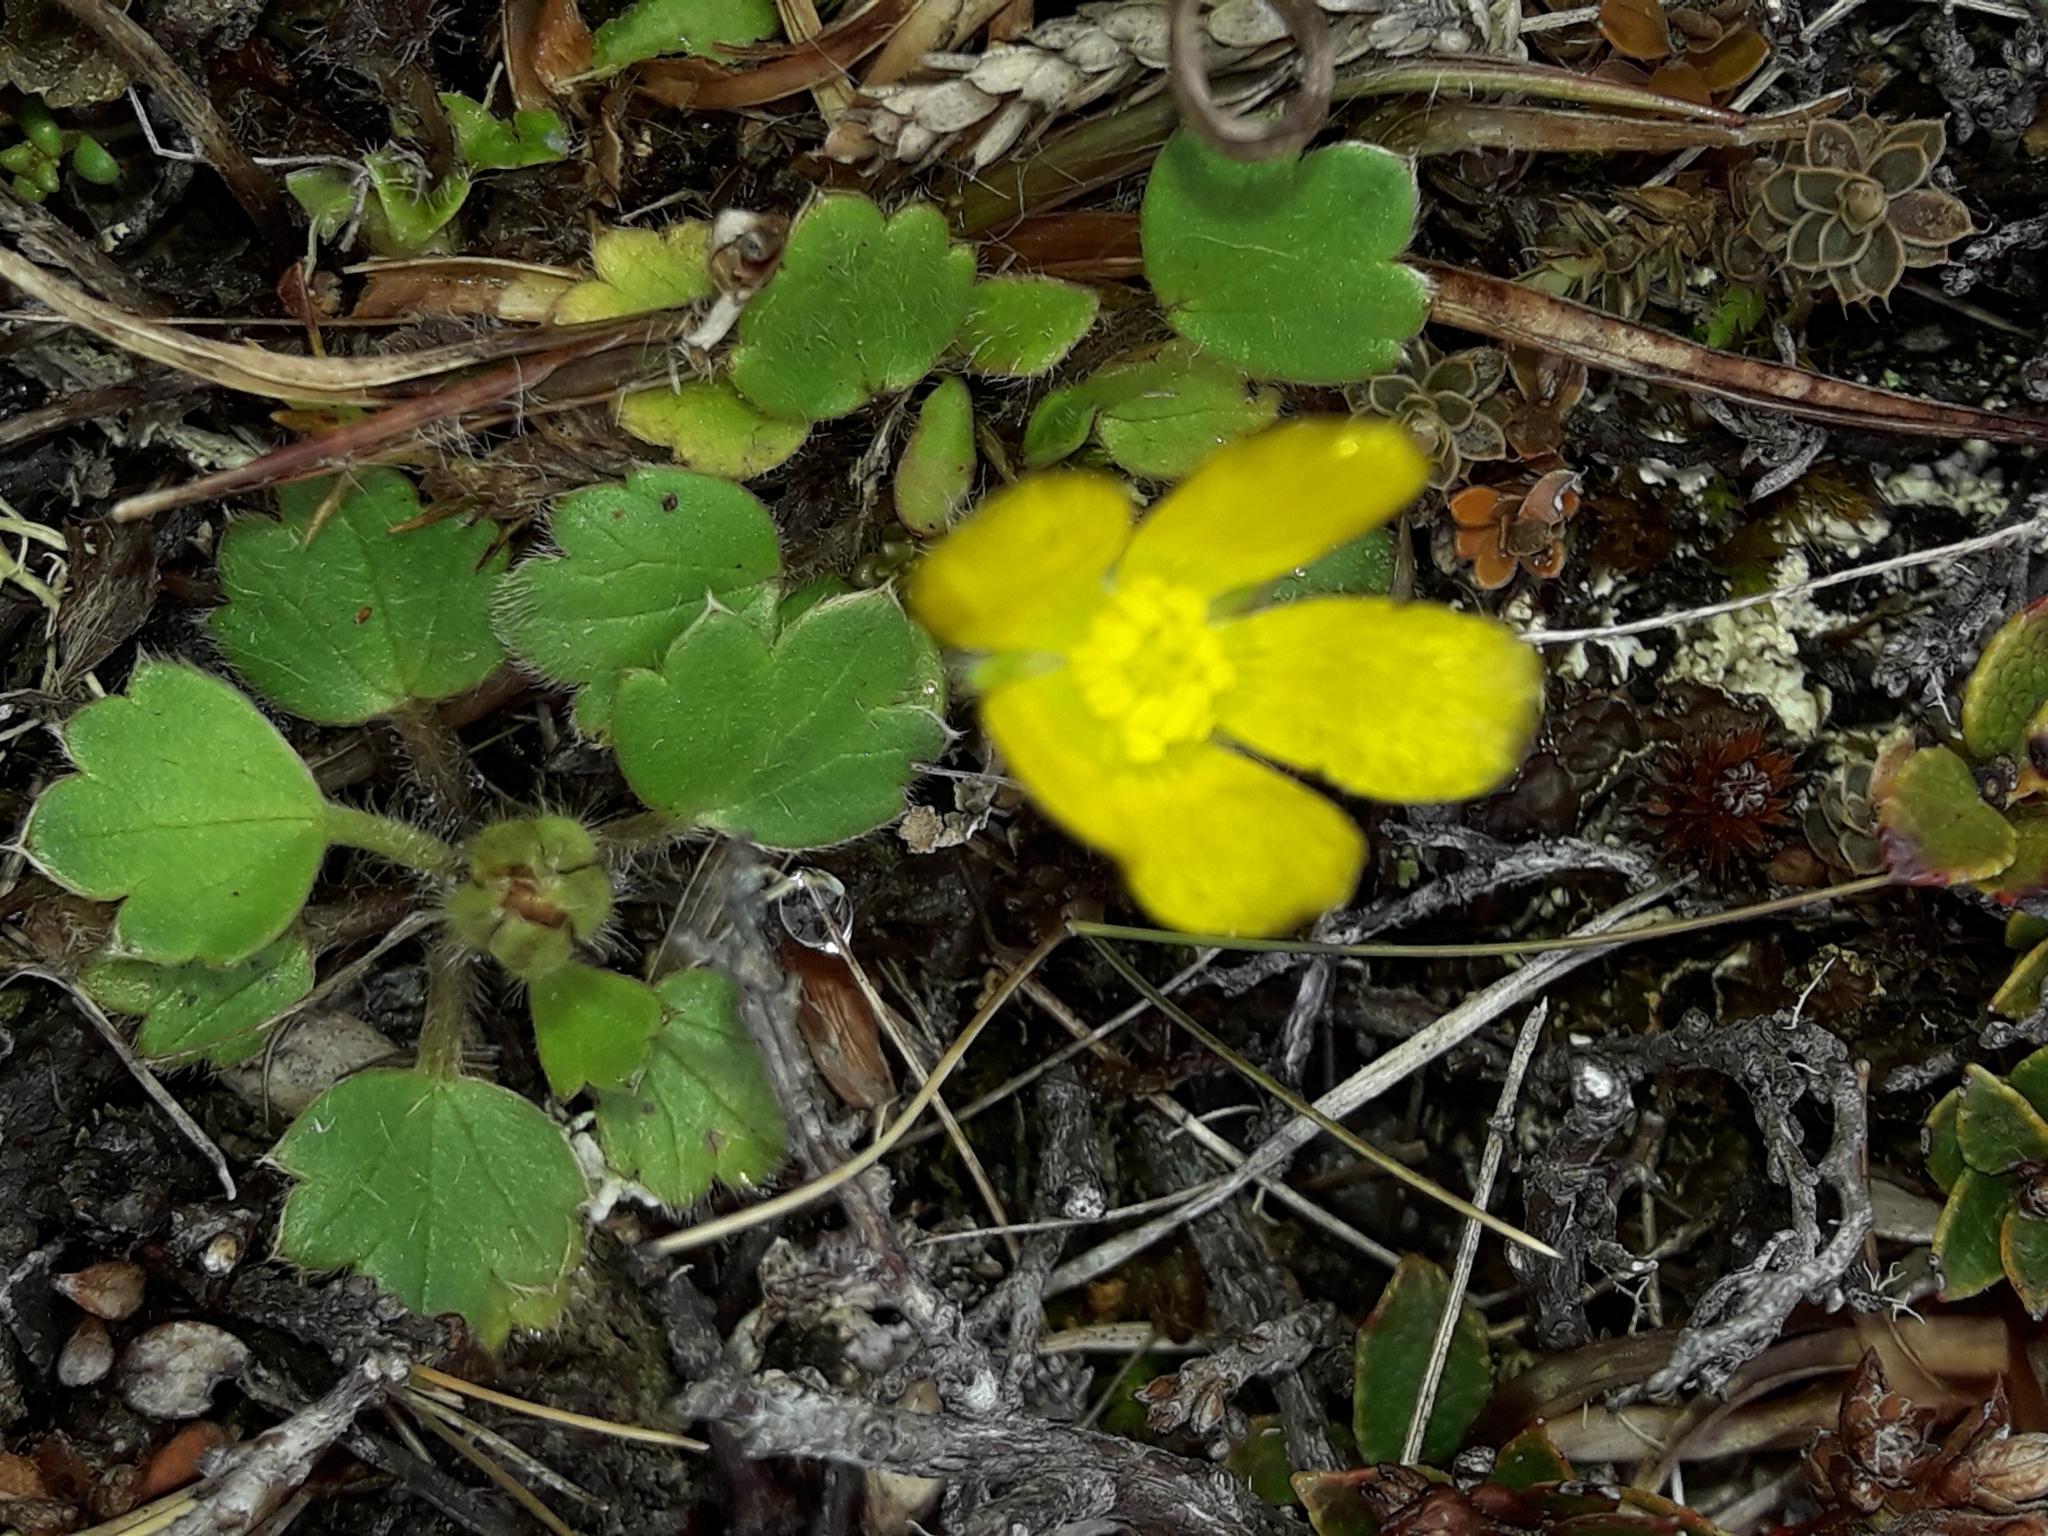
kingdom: Plantae
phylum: Tracheophyta
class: Magnoliopsida
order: Ranunculales
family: Ranunculaceae
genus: Ranunculus
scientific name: Ranunculus royi
